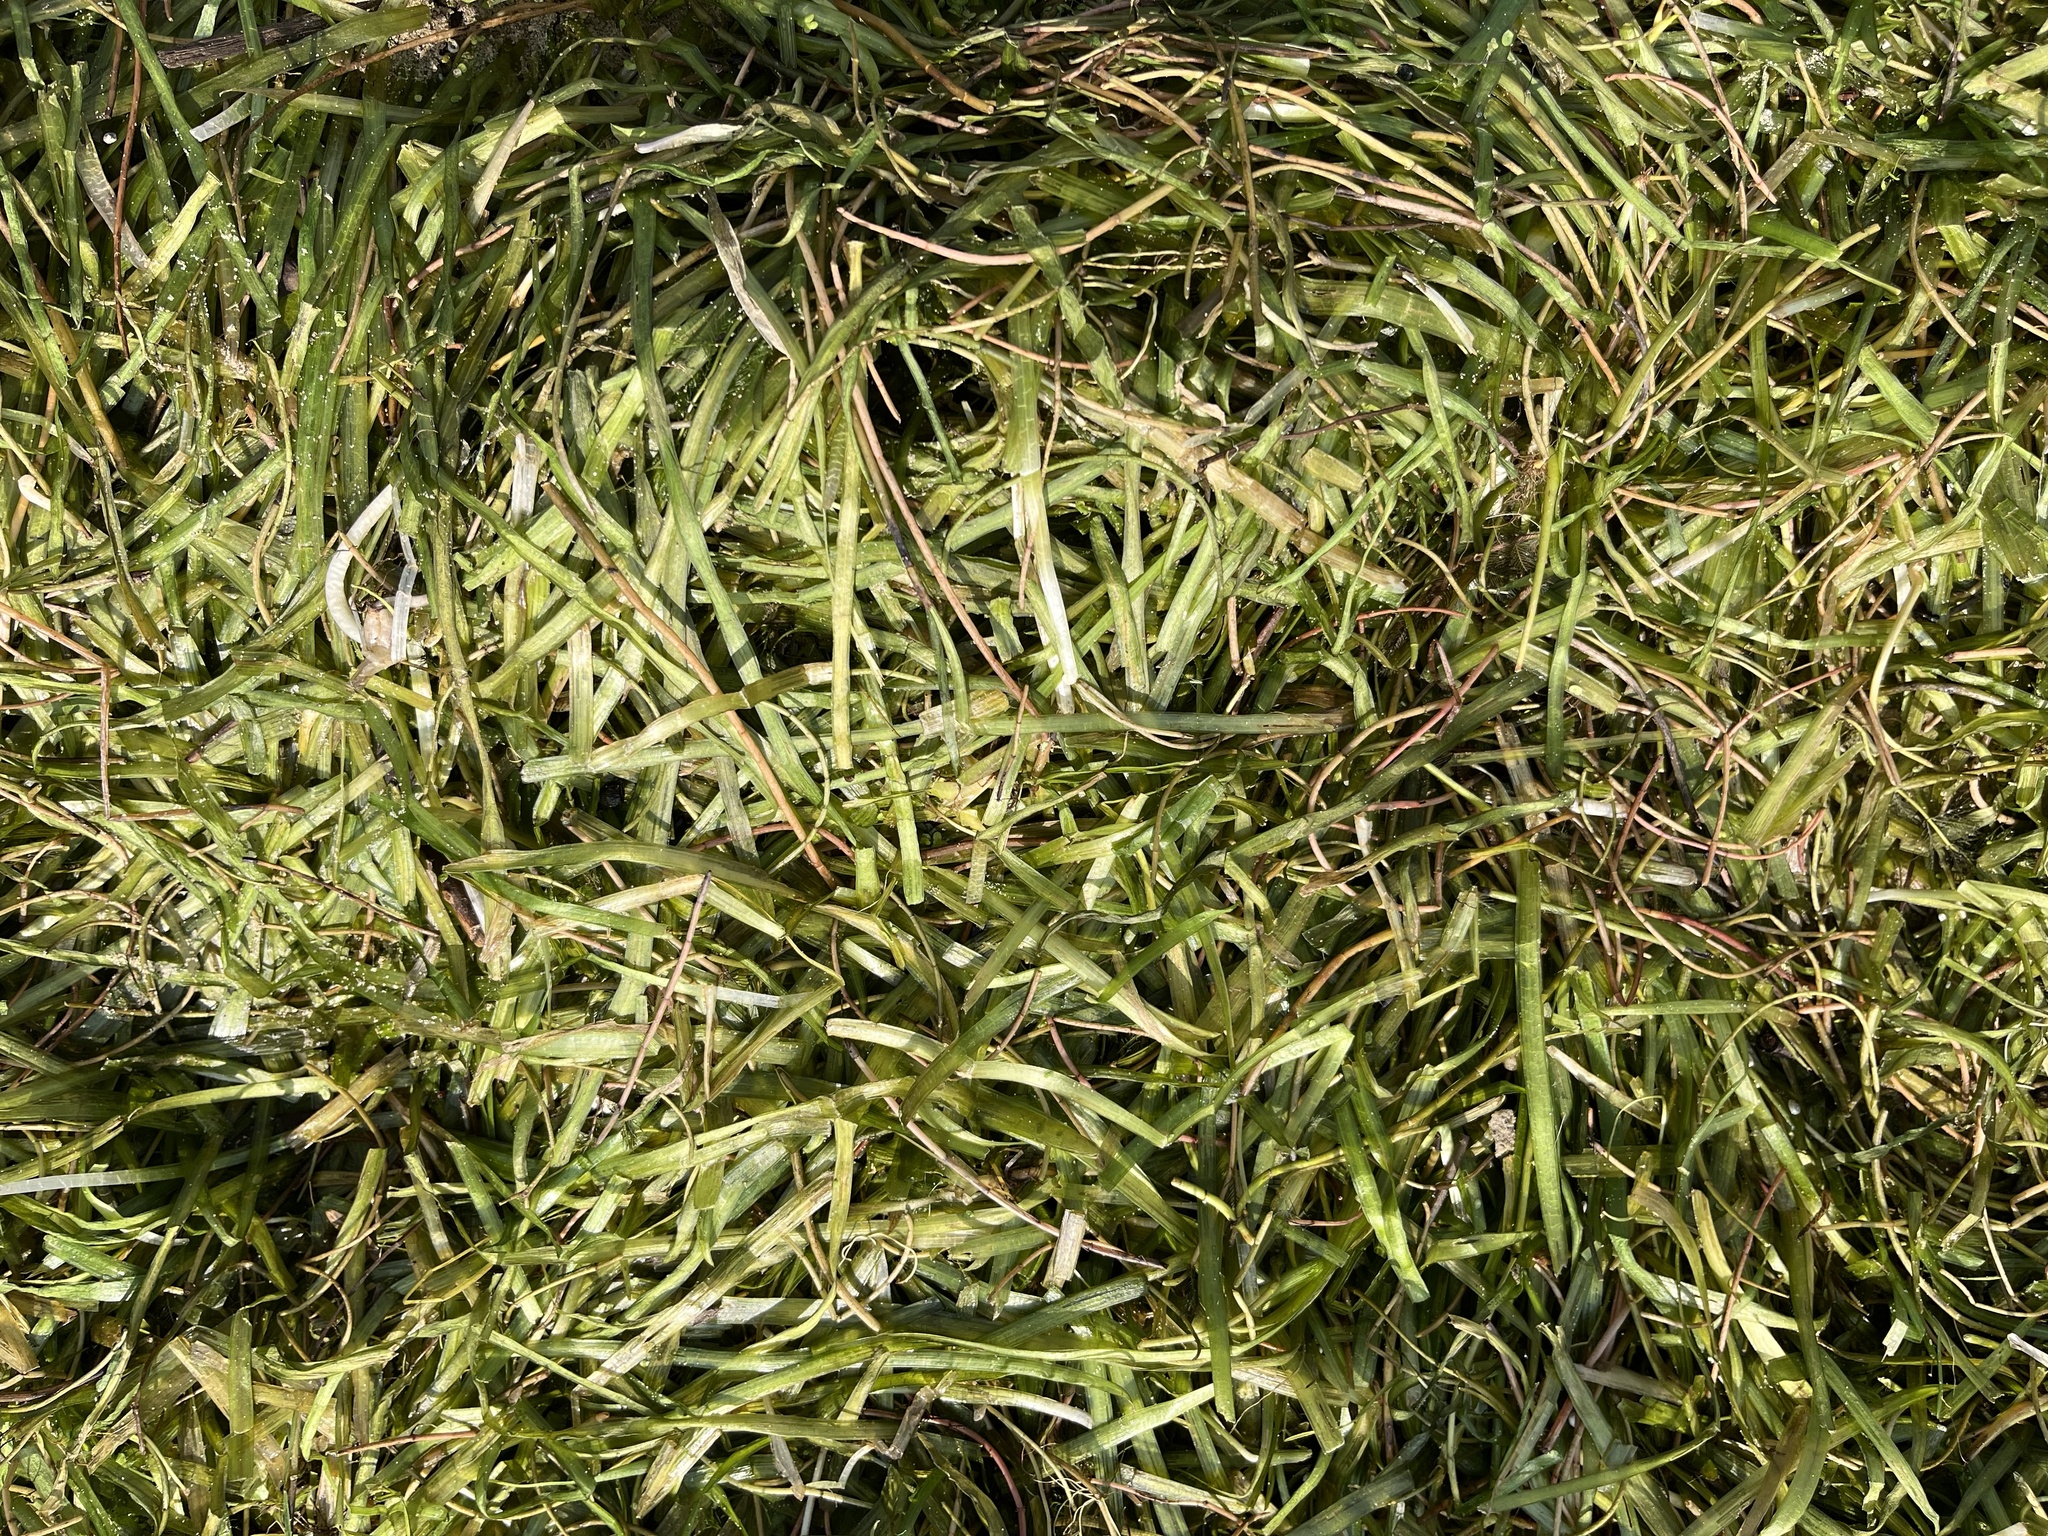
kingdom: Plantae
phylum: Tracheophyta
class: Liliopsida
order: Alismatales
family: Hydrocharitaceae
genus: Vallisneria
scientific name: Vallisneria americana
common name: American eelgrass
